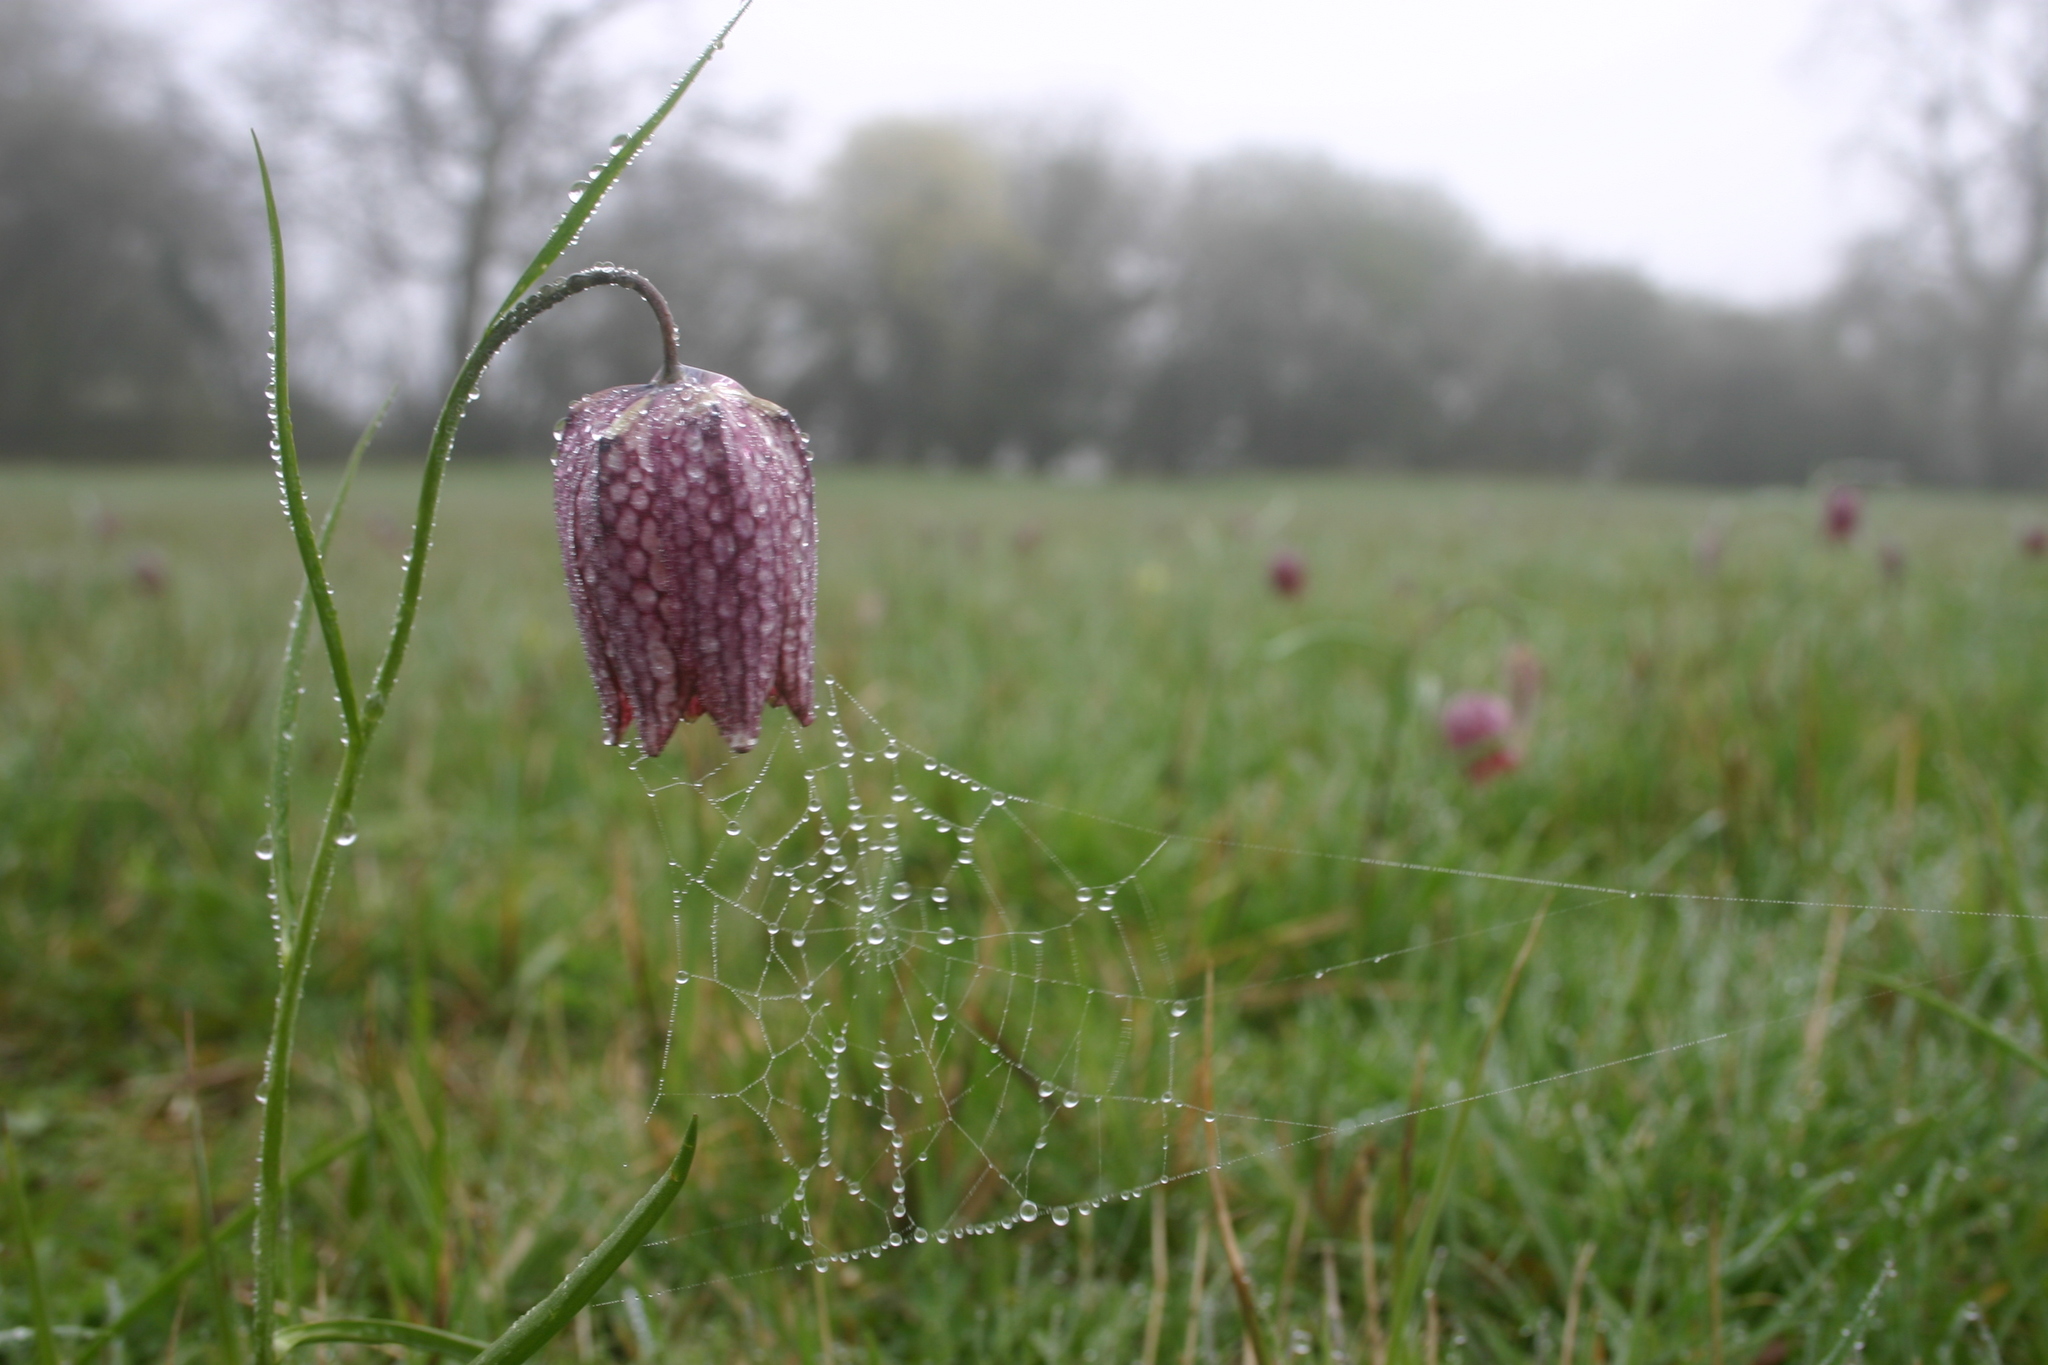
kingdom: Plantae
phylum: Tracheophyta
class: Liliopsida
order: Liliales
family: Liliaceae
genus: Fritillaria
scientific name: Fritillaria meleagris
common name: Fritillary
